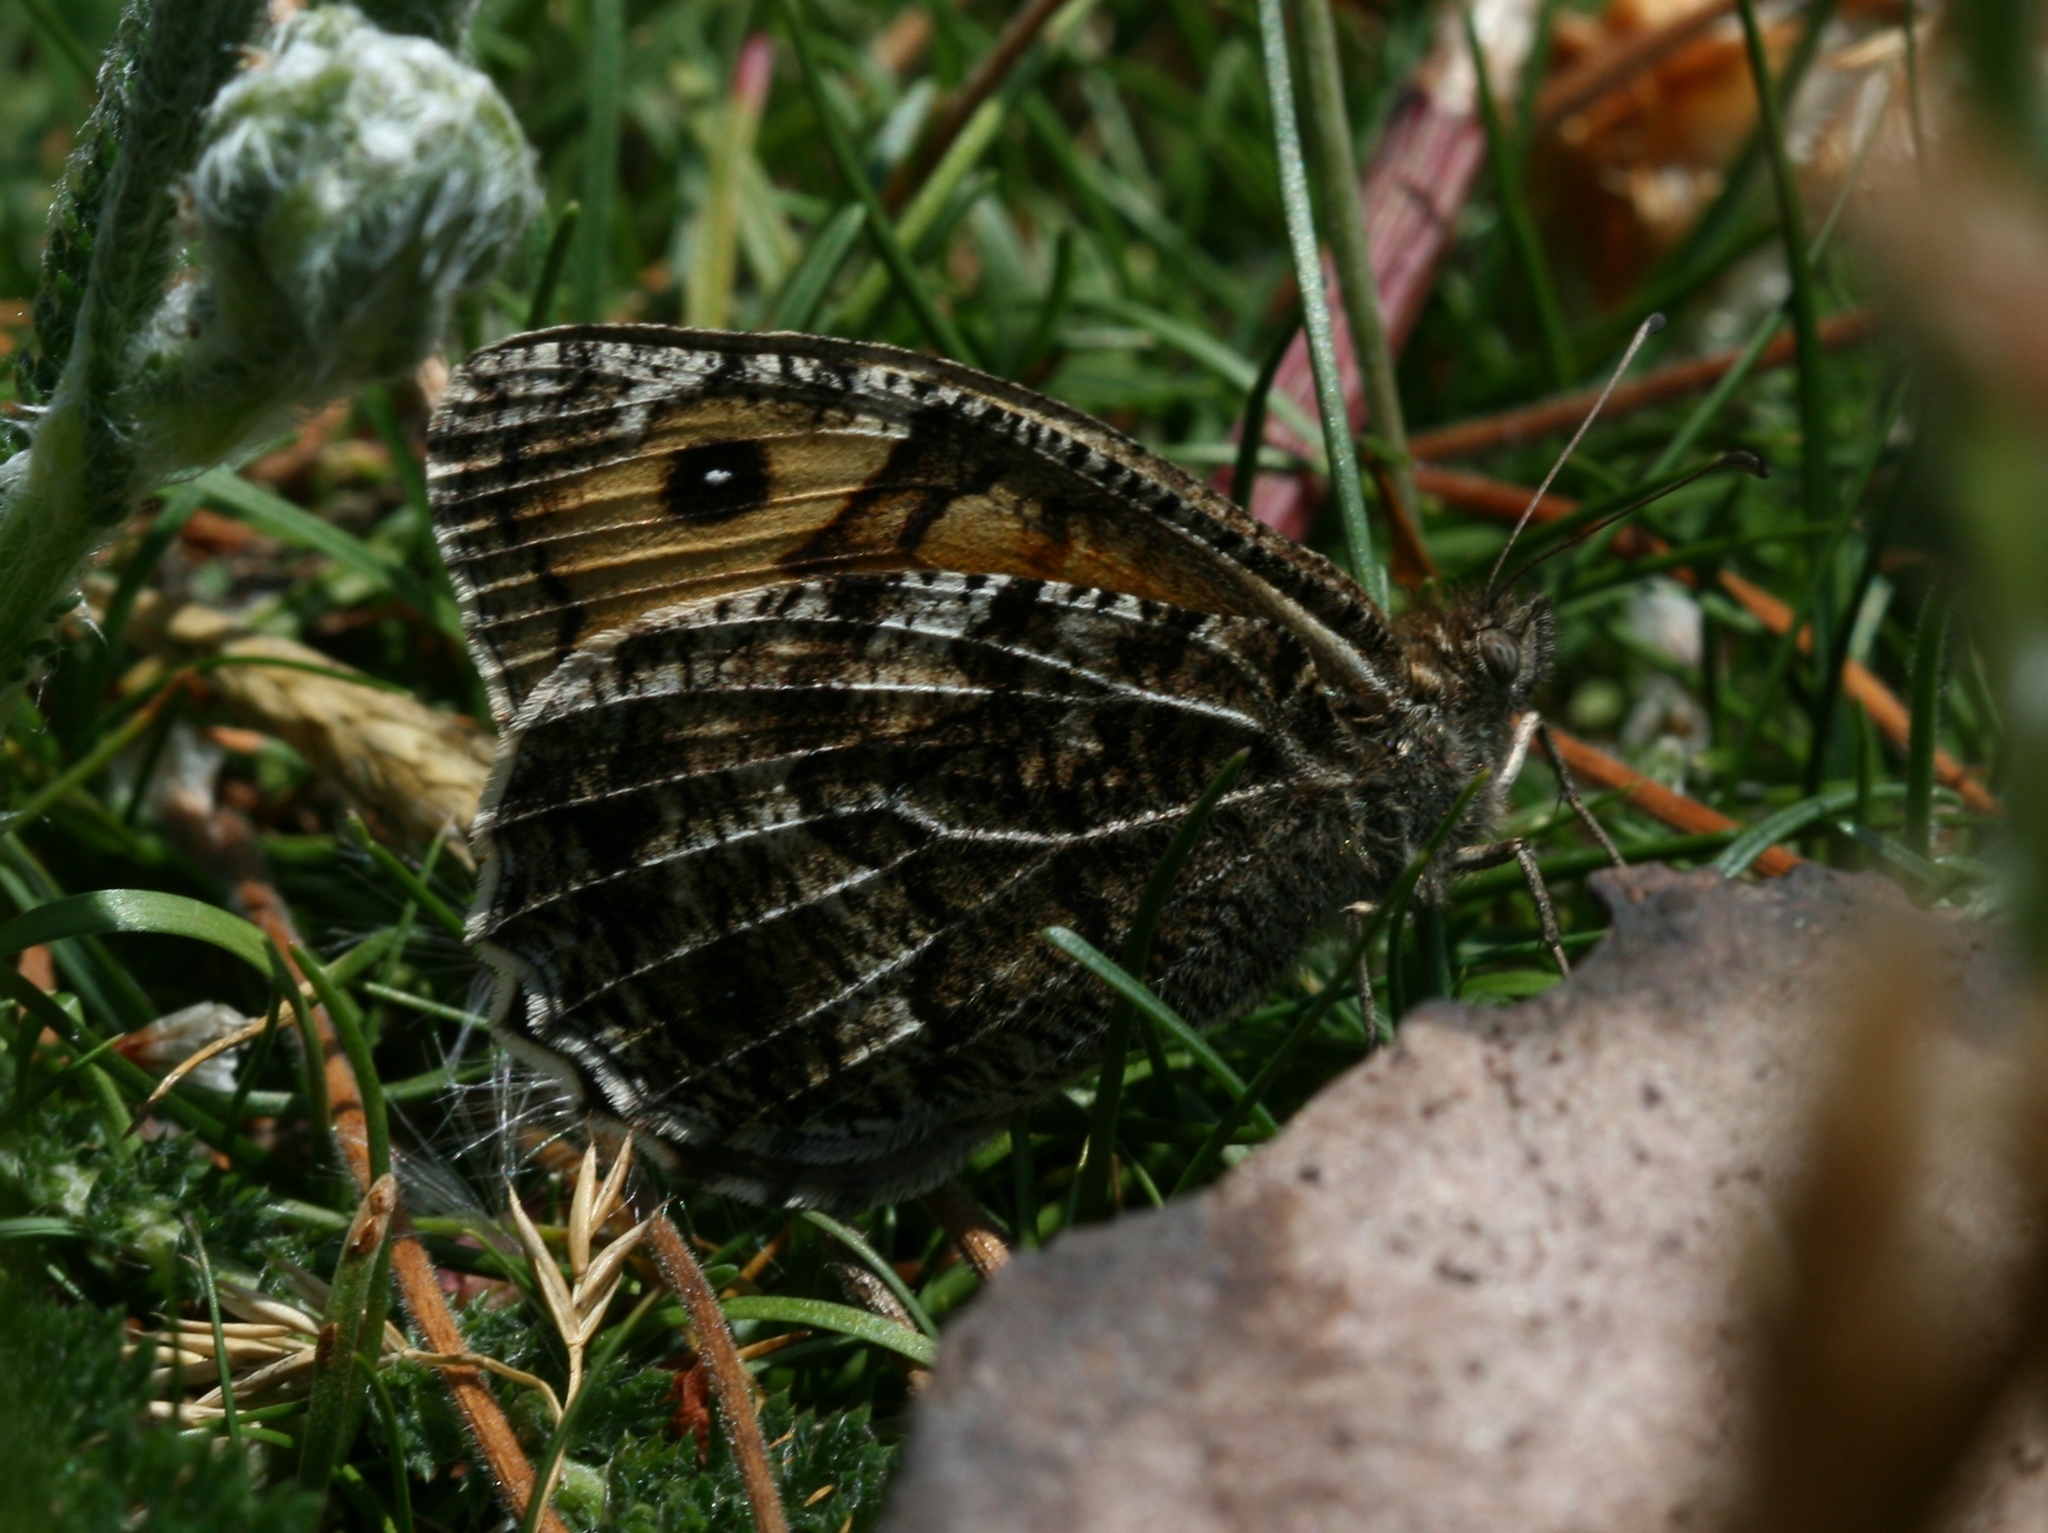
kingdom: Animalia
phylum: Arthropoda
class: Insecta
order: Lepidoptera
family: Nymphalidae
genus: Hipparchia
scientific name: Hipparchia semele
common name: Grayling
